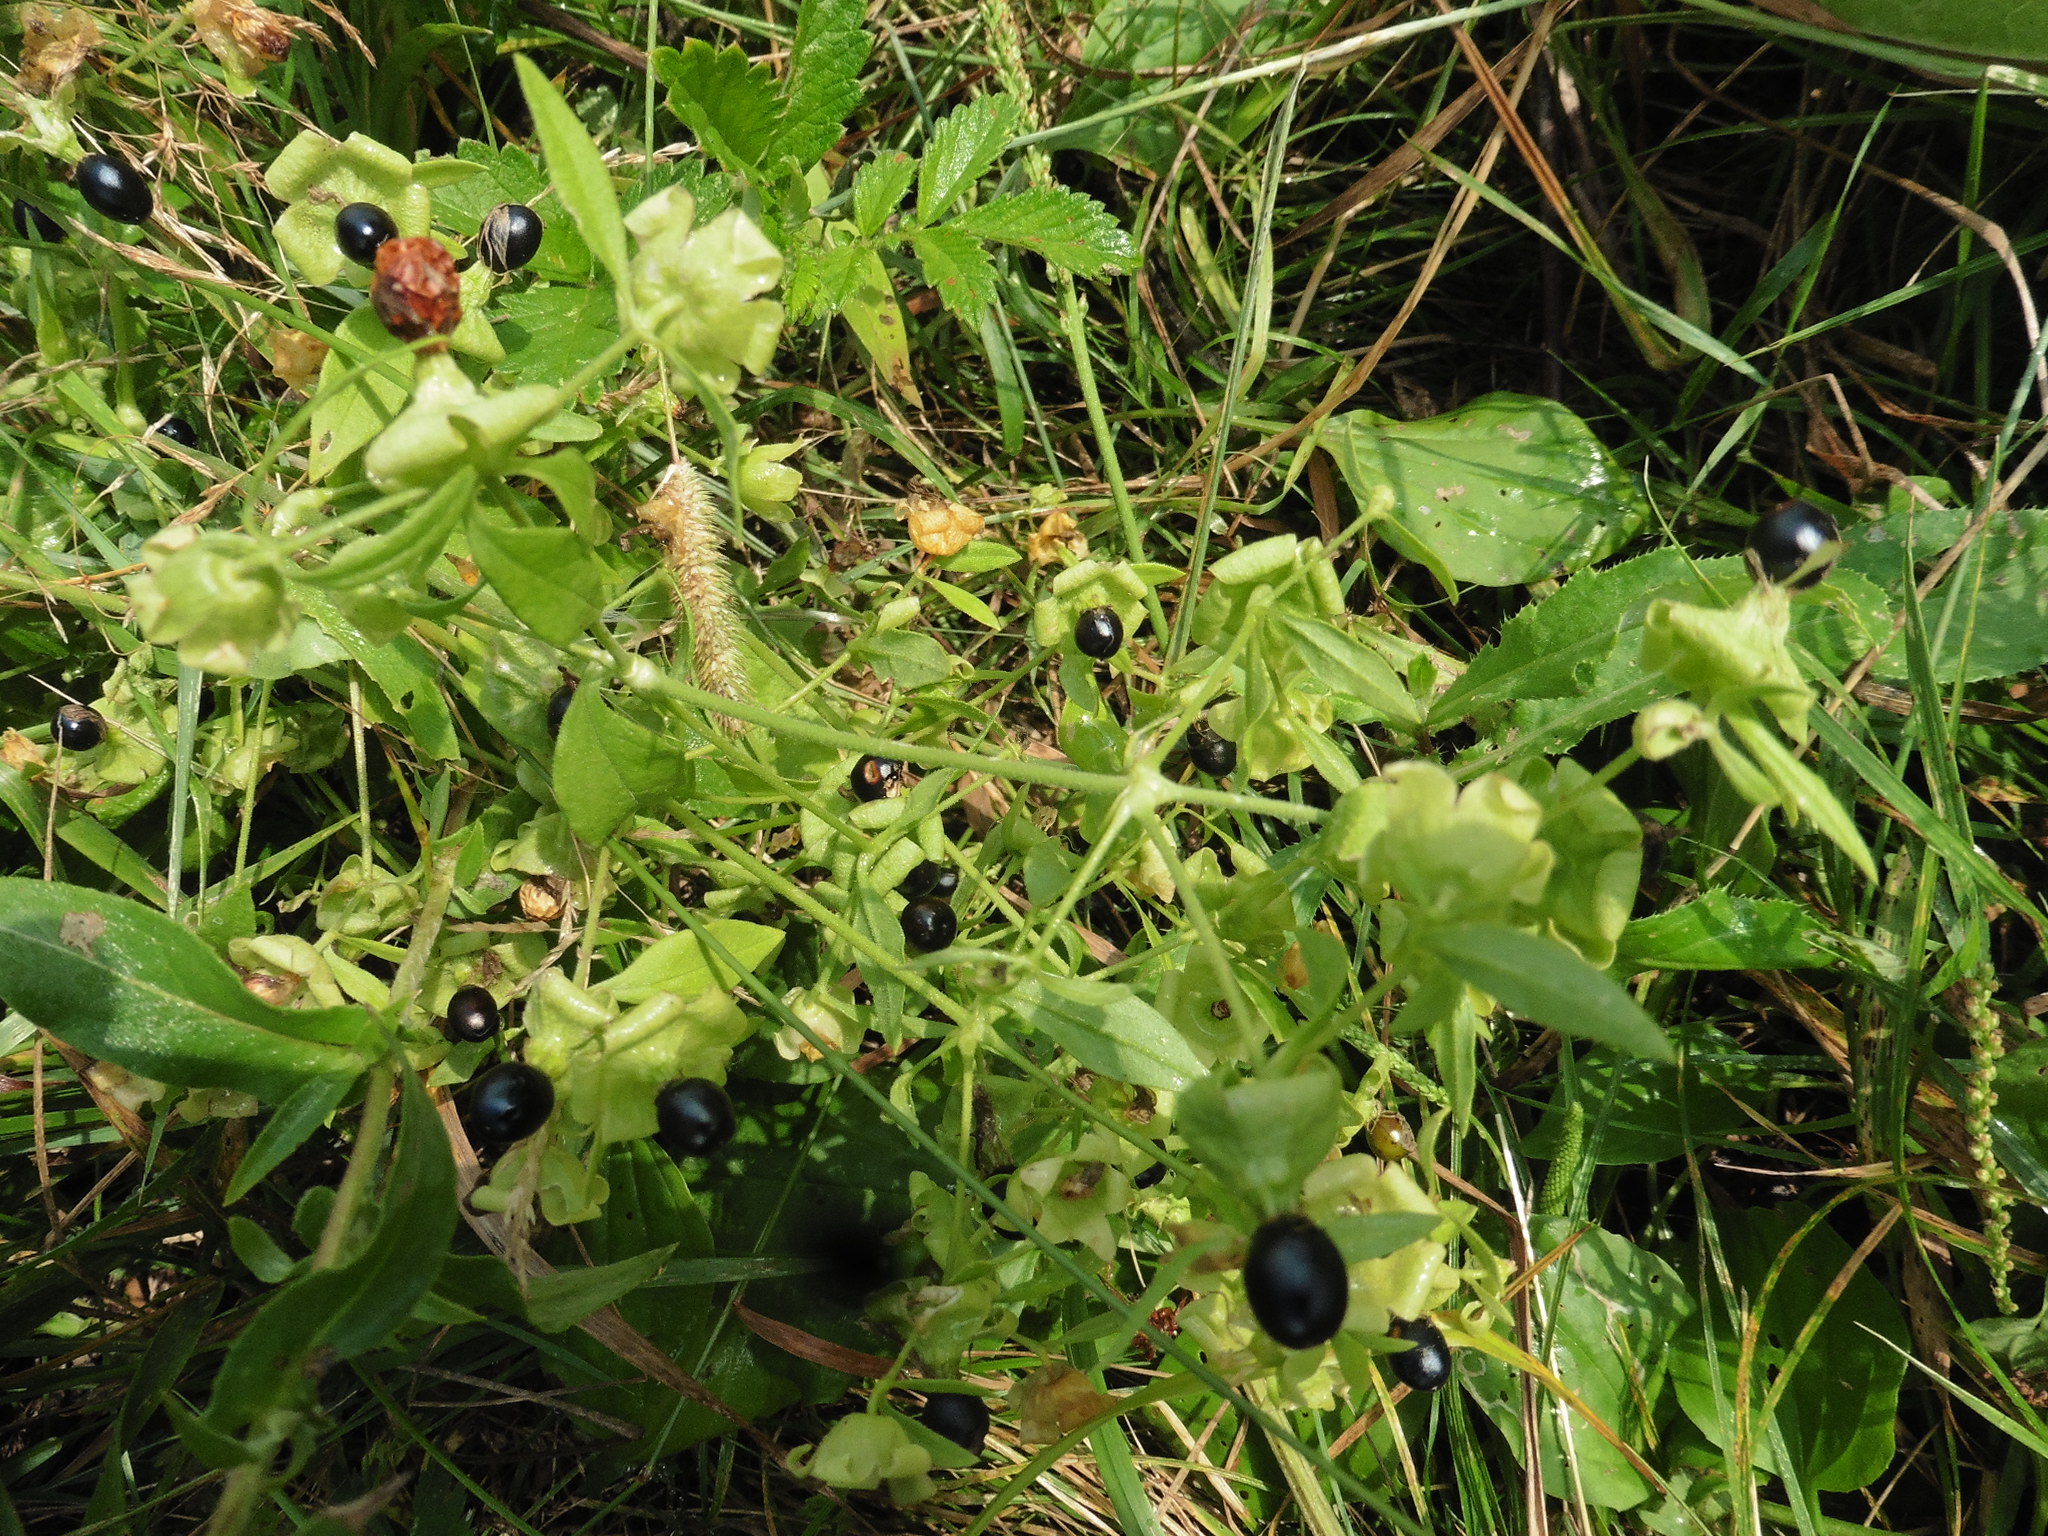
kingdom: Plantae
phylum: Tracheophyta
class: Magnoliopsida
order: Caryophyllales
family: Caryophyllaceae
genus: Silene
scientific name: Silene baccifera
